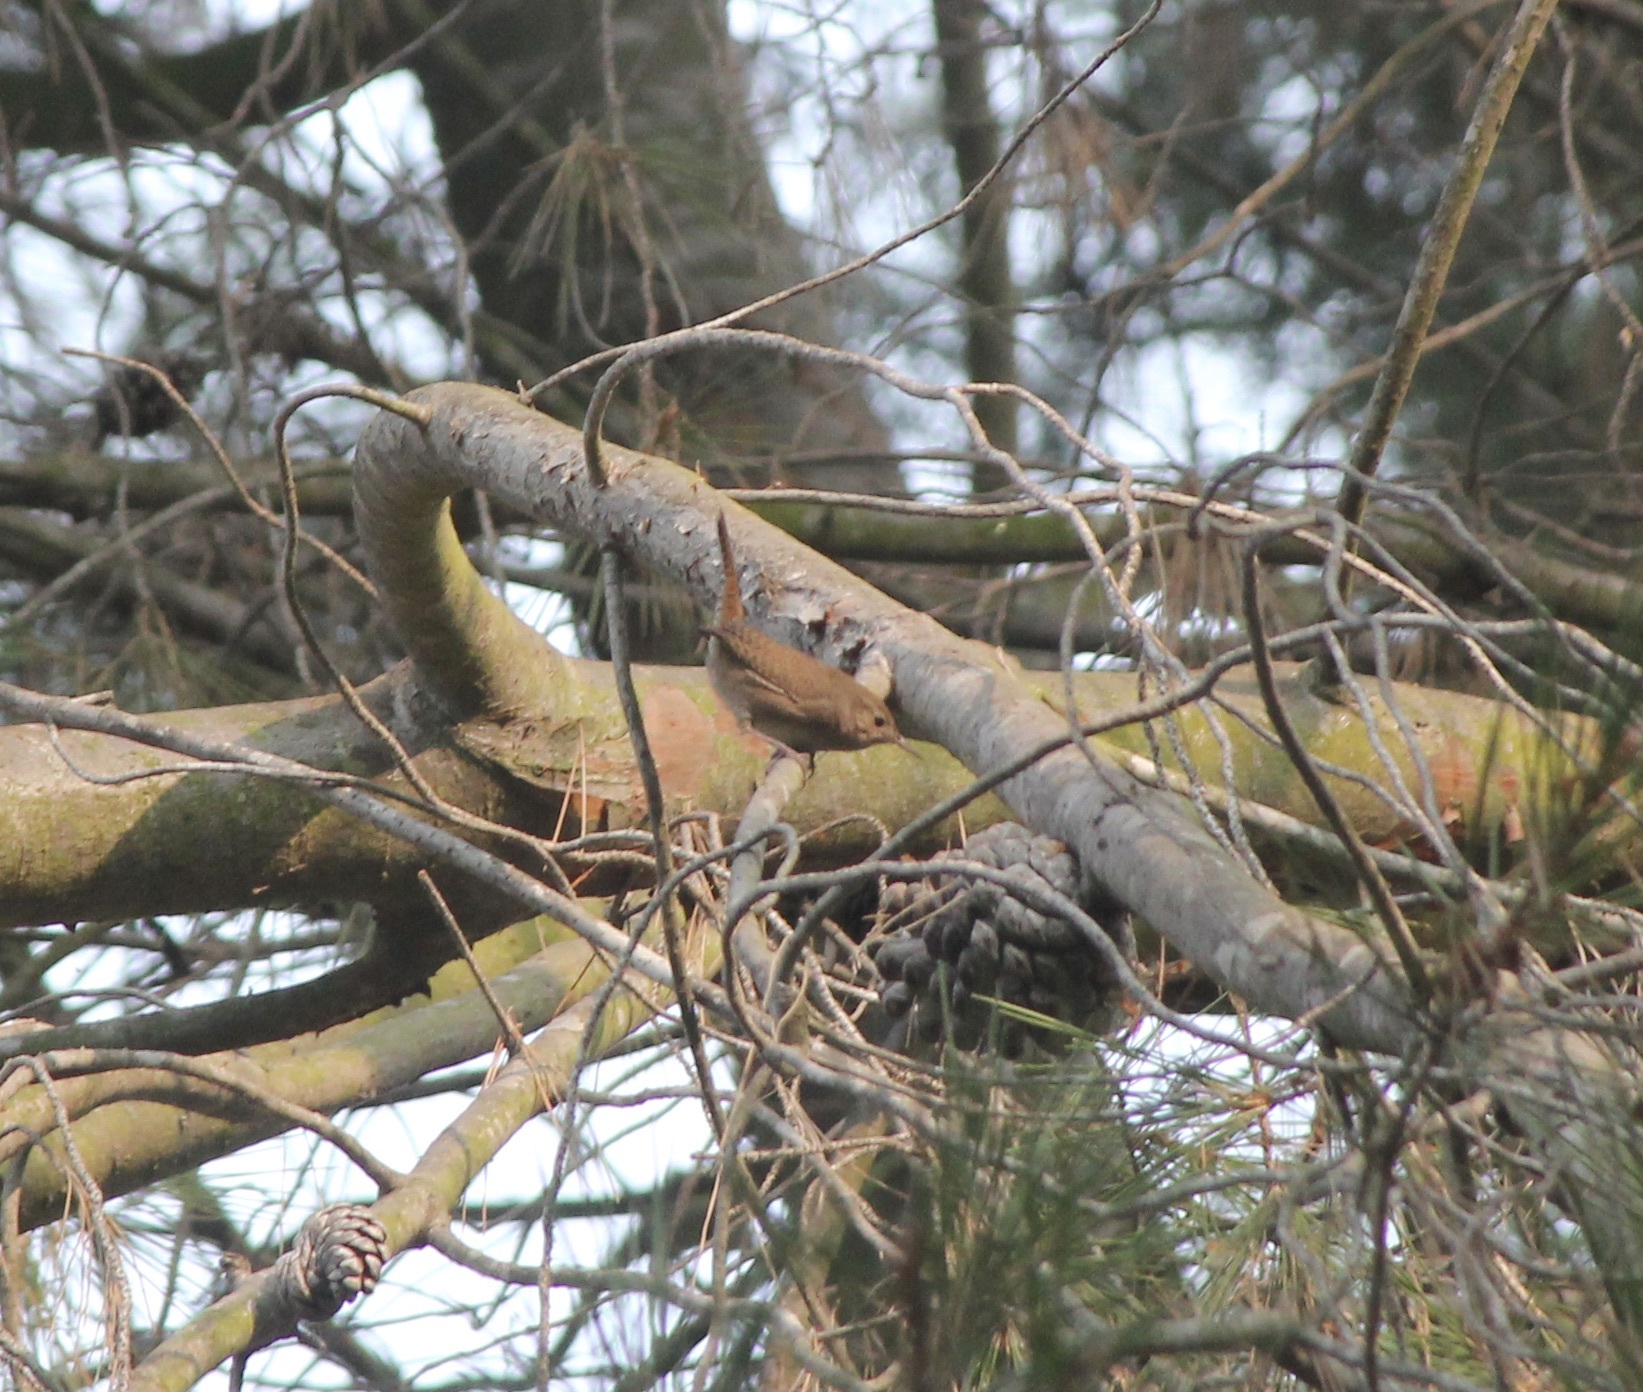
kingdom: Animalia
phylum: Chordata
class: Aves
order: Passeriformes
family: Troglodytidae
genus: Troglodytes
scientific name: Troglodytes aedon
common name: House wren
